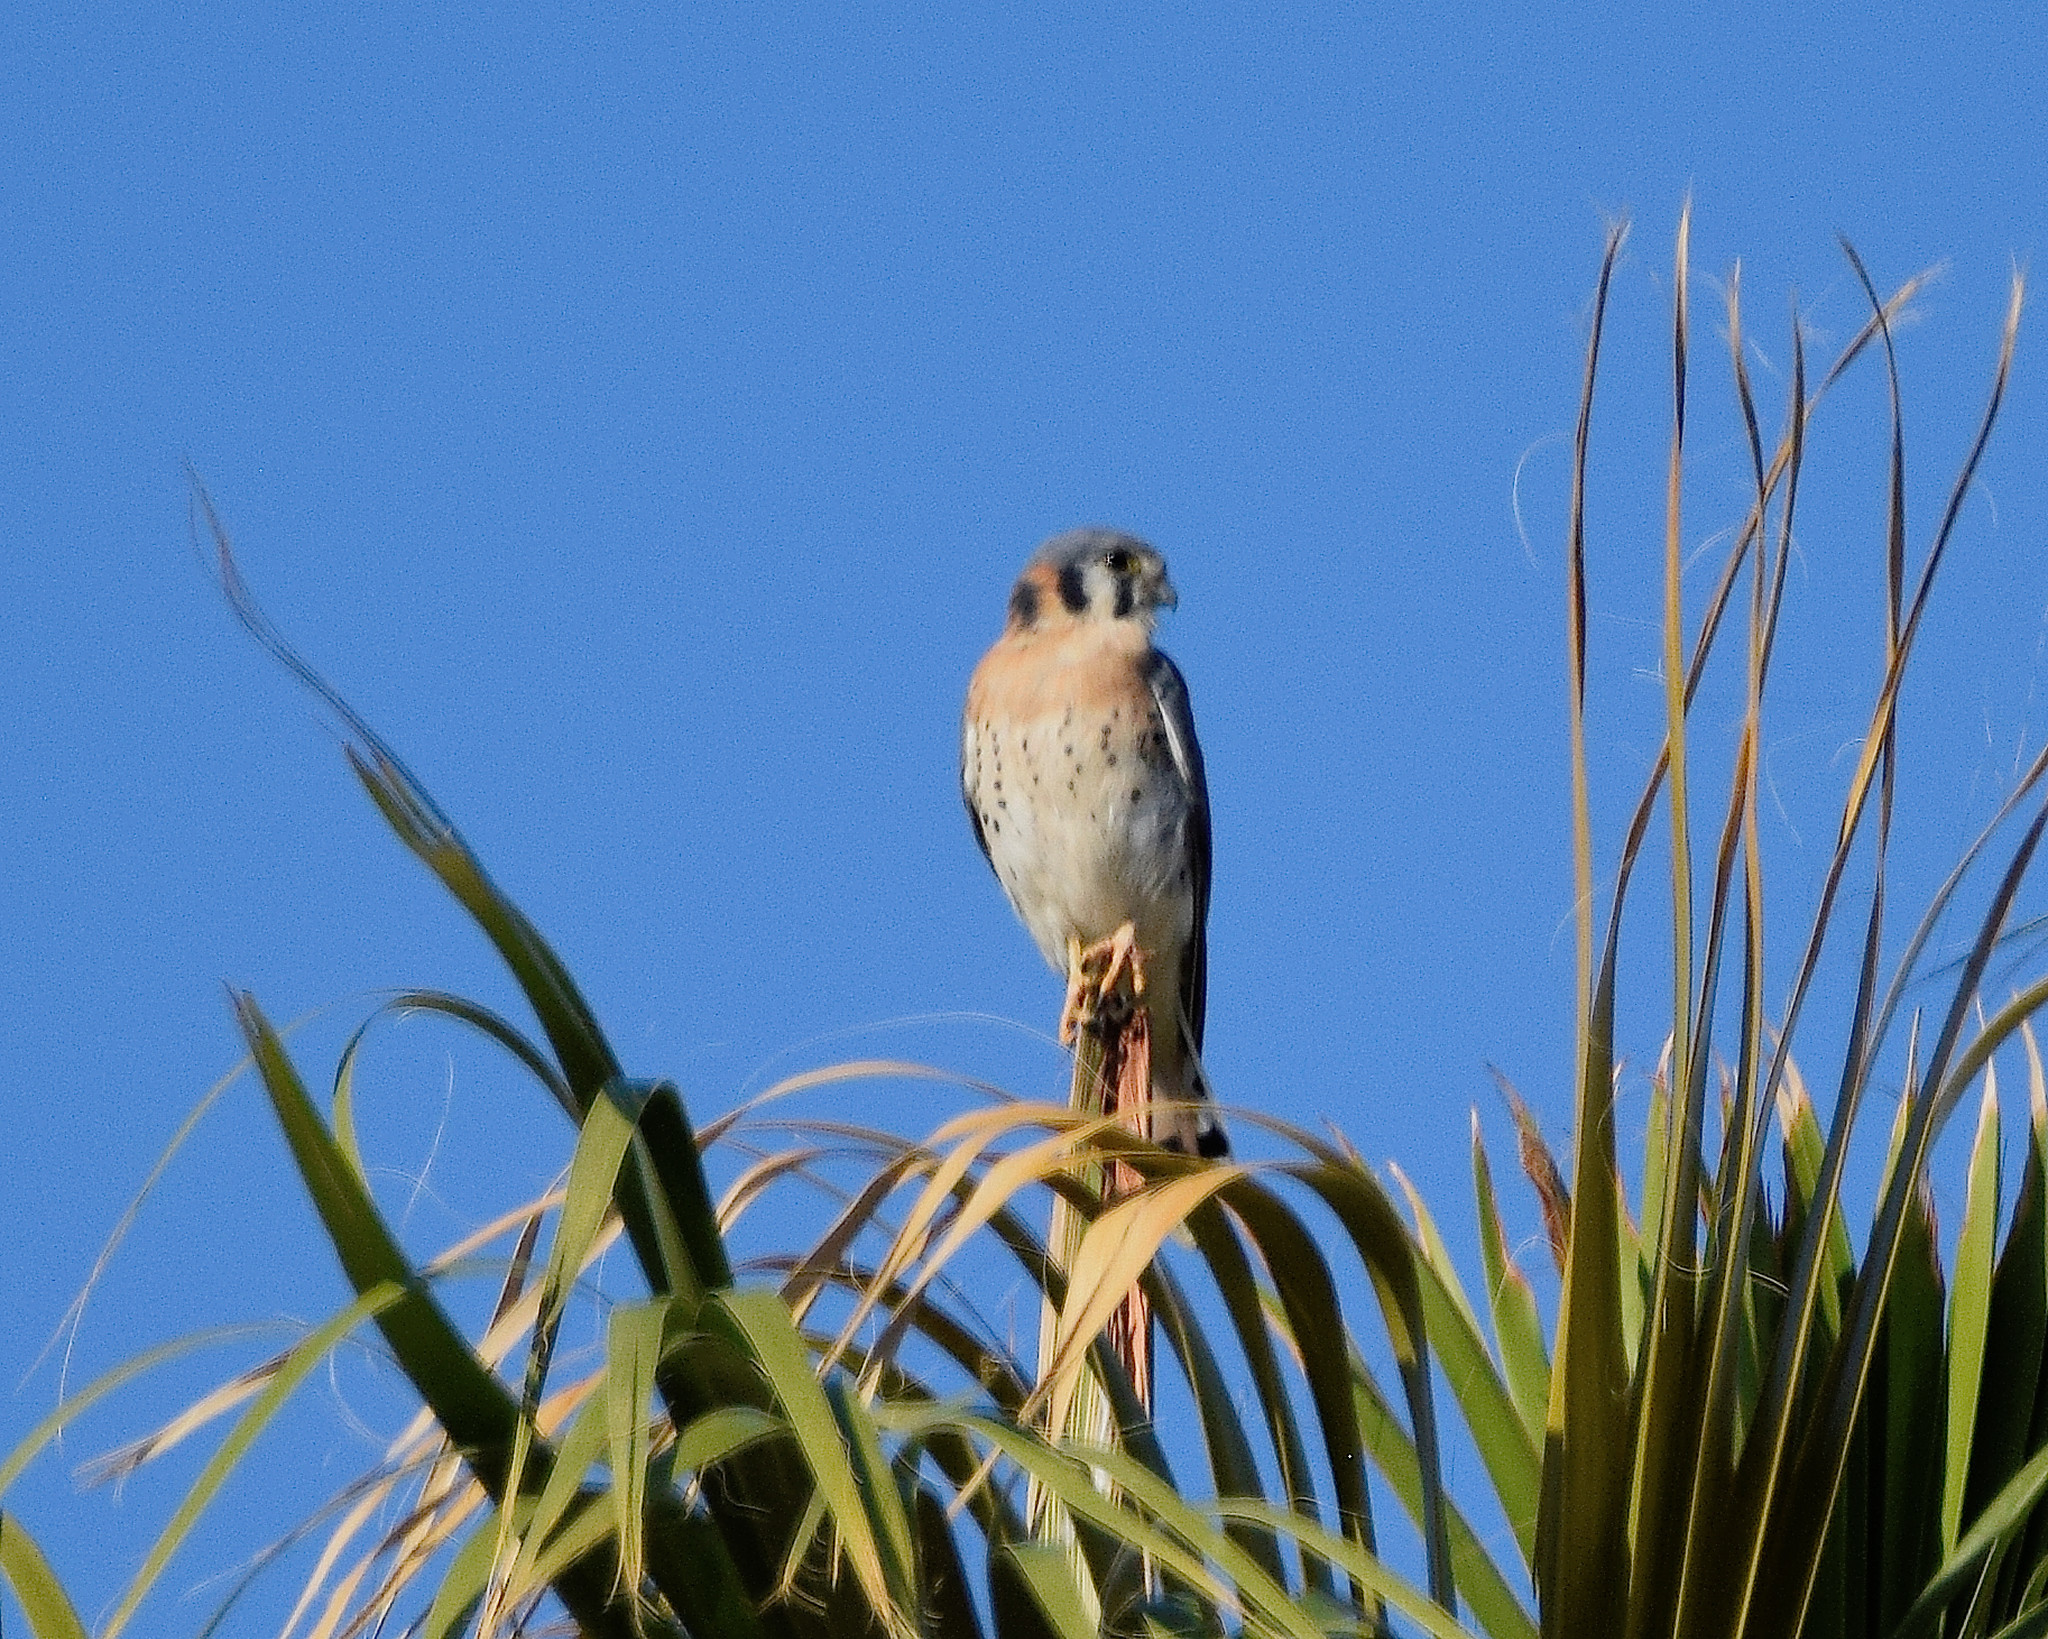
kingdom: Animalia
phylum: Chordata
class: Aves
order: Falconiformes
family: Falconidae
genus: Falco
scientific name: Falco sparverius
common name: American kestrel
